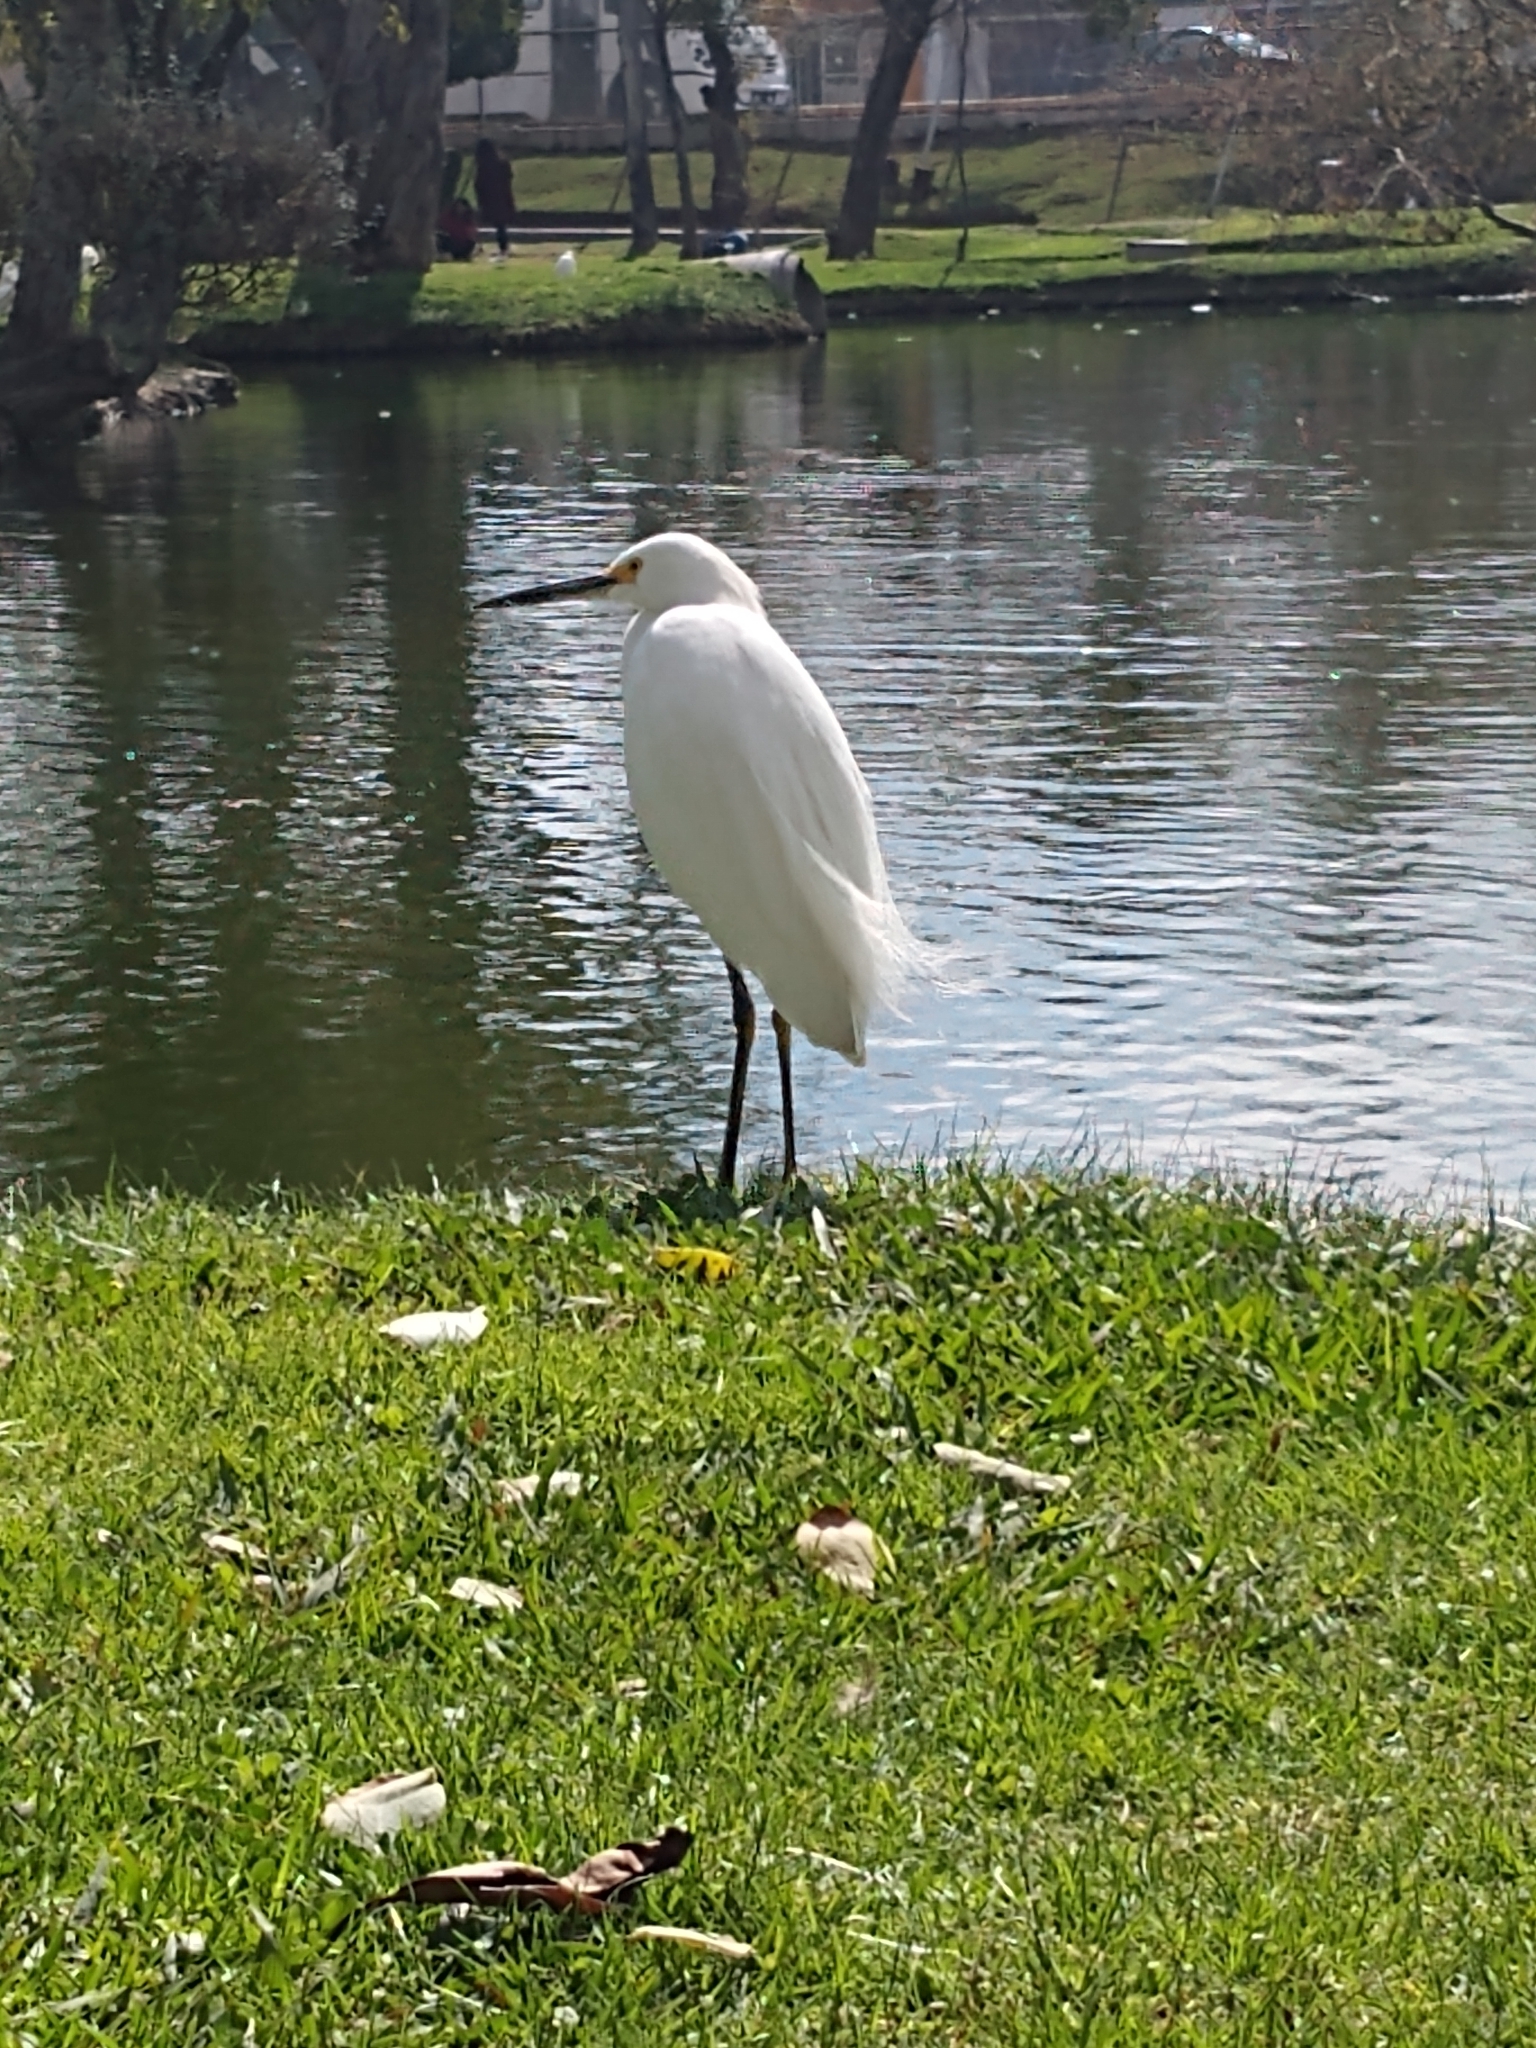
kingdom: Animalia
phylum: Chordata
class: Aves
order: Pelecaniformes
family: Ardeidae
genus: Egretta
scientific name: Egretta thula
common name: Snowy egret
